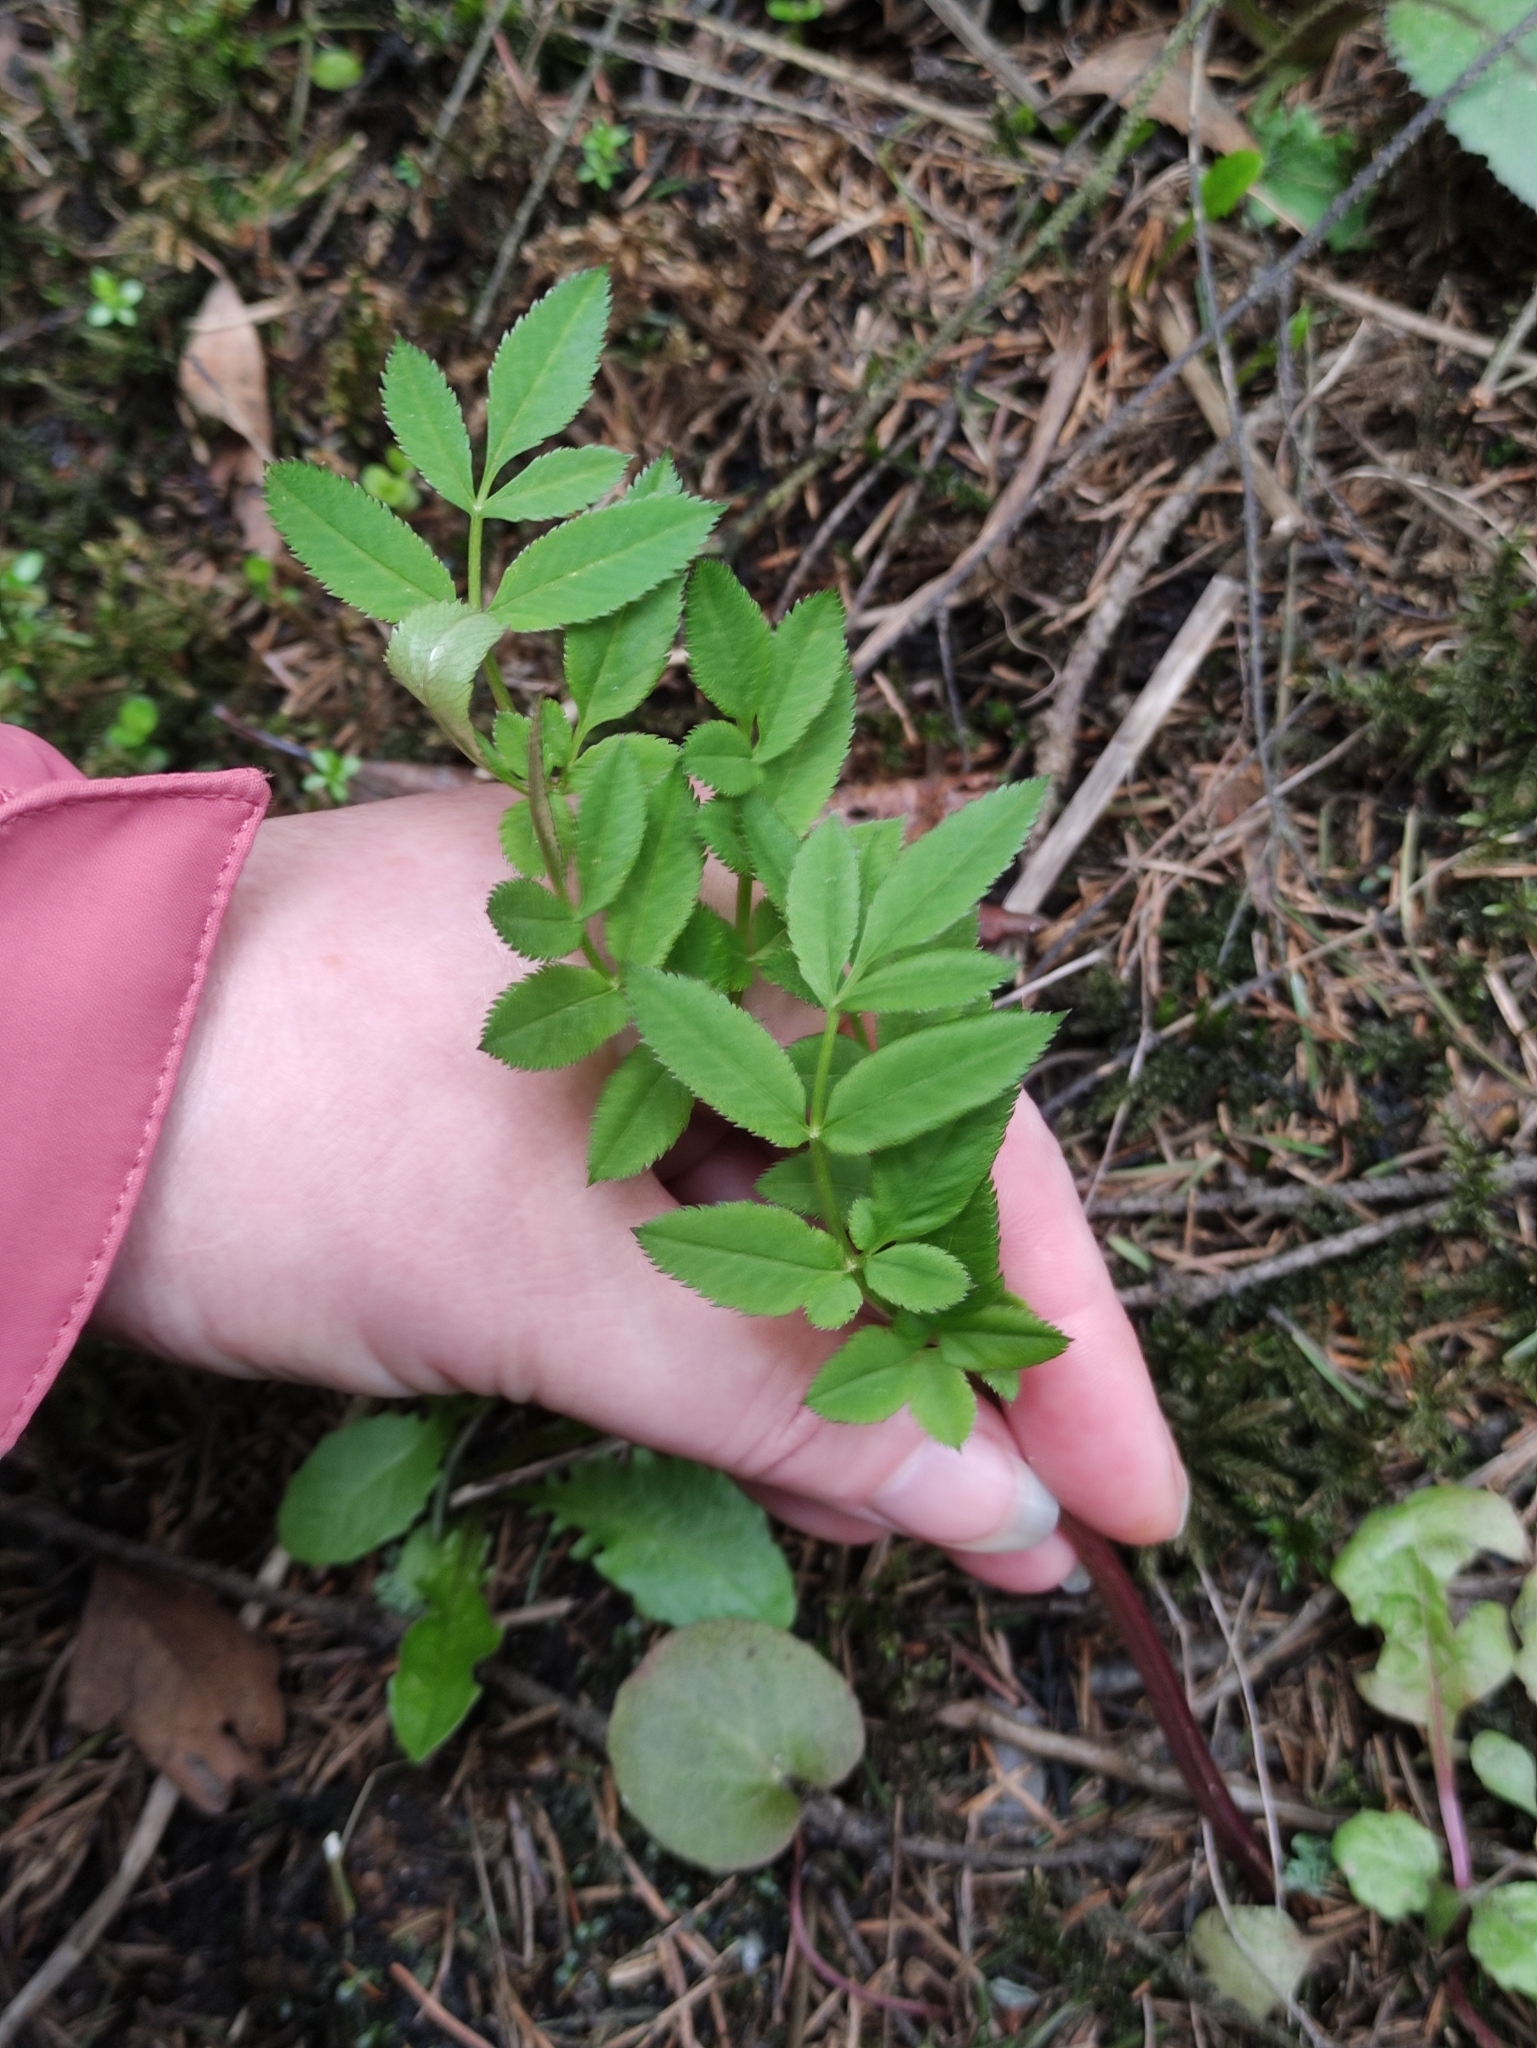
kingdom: Plantae
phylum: Tracheophyta
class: Magnoliopsida
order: Apiales
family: Apiaceae
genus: Angelica
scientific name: Angelica sylvestris
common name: Wild angelica
